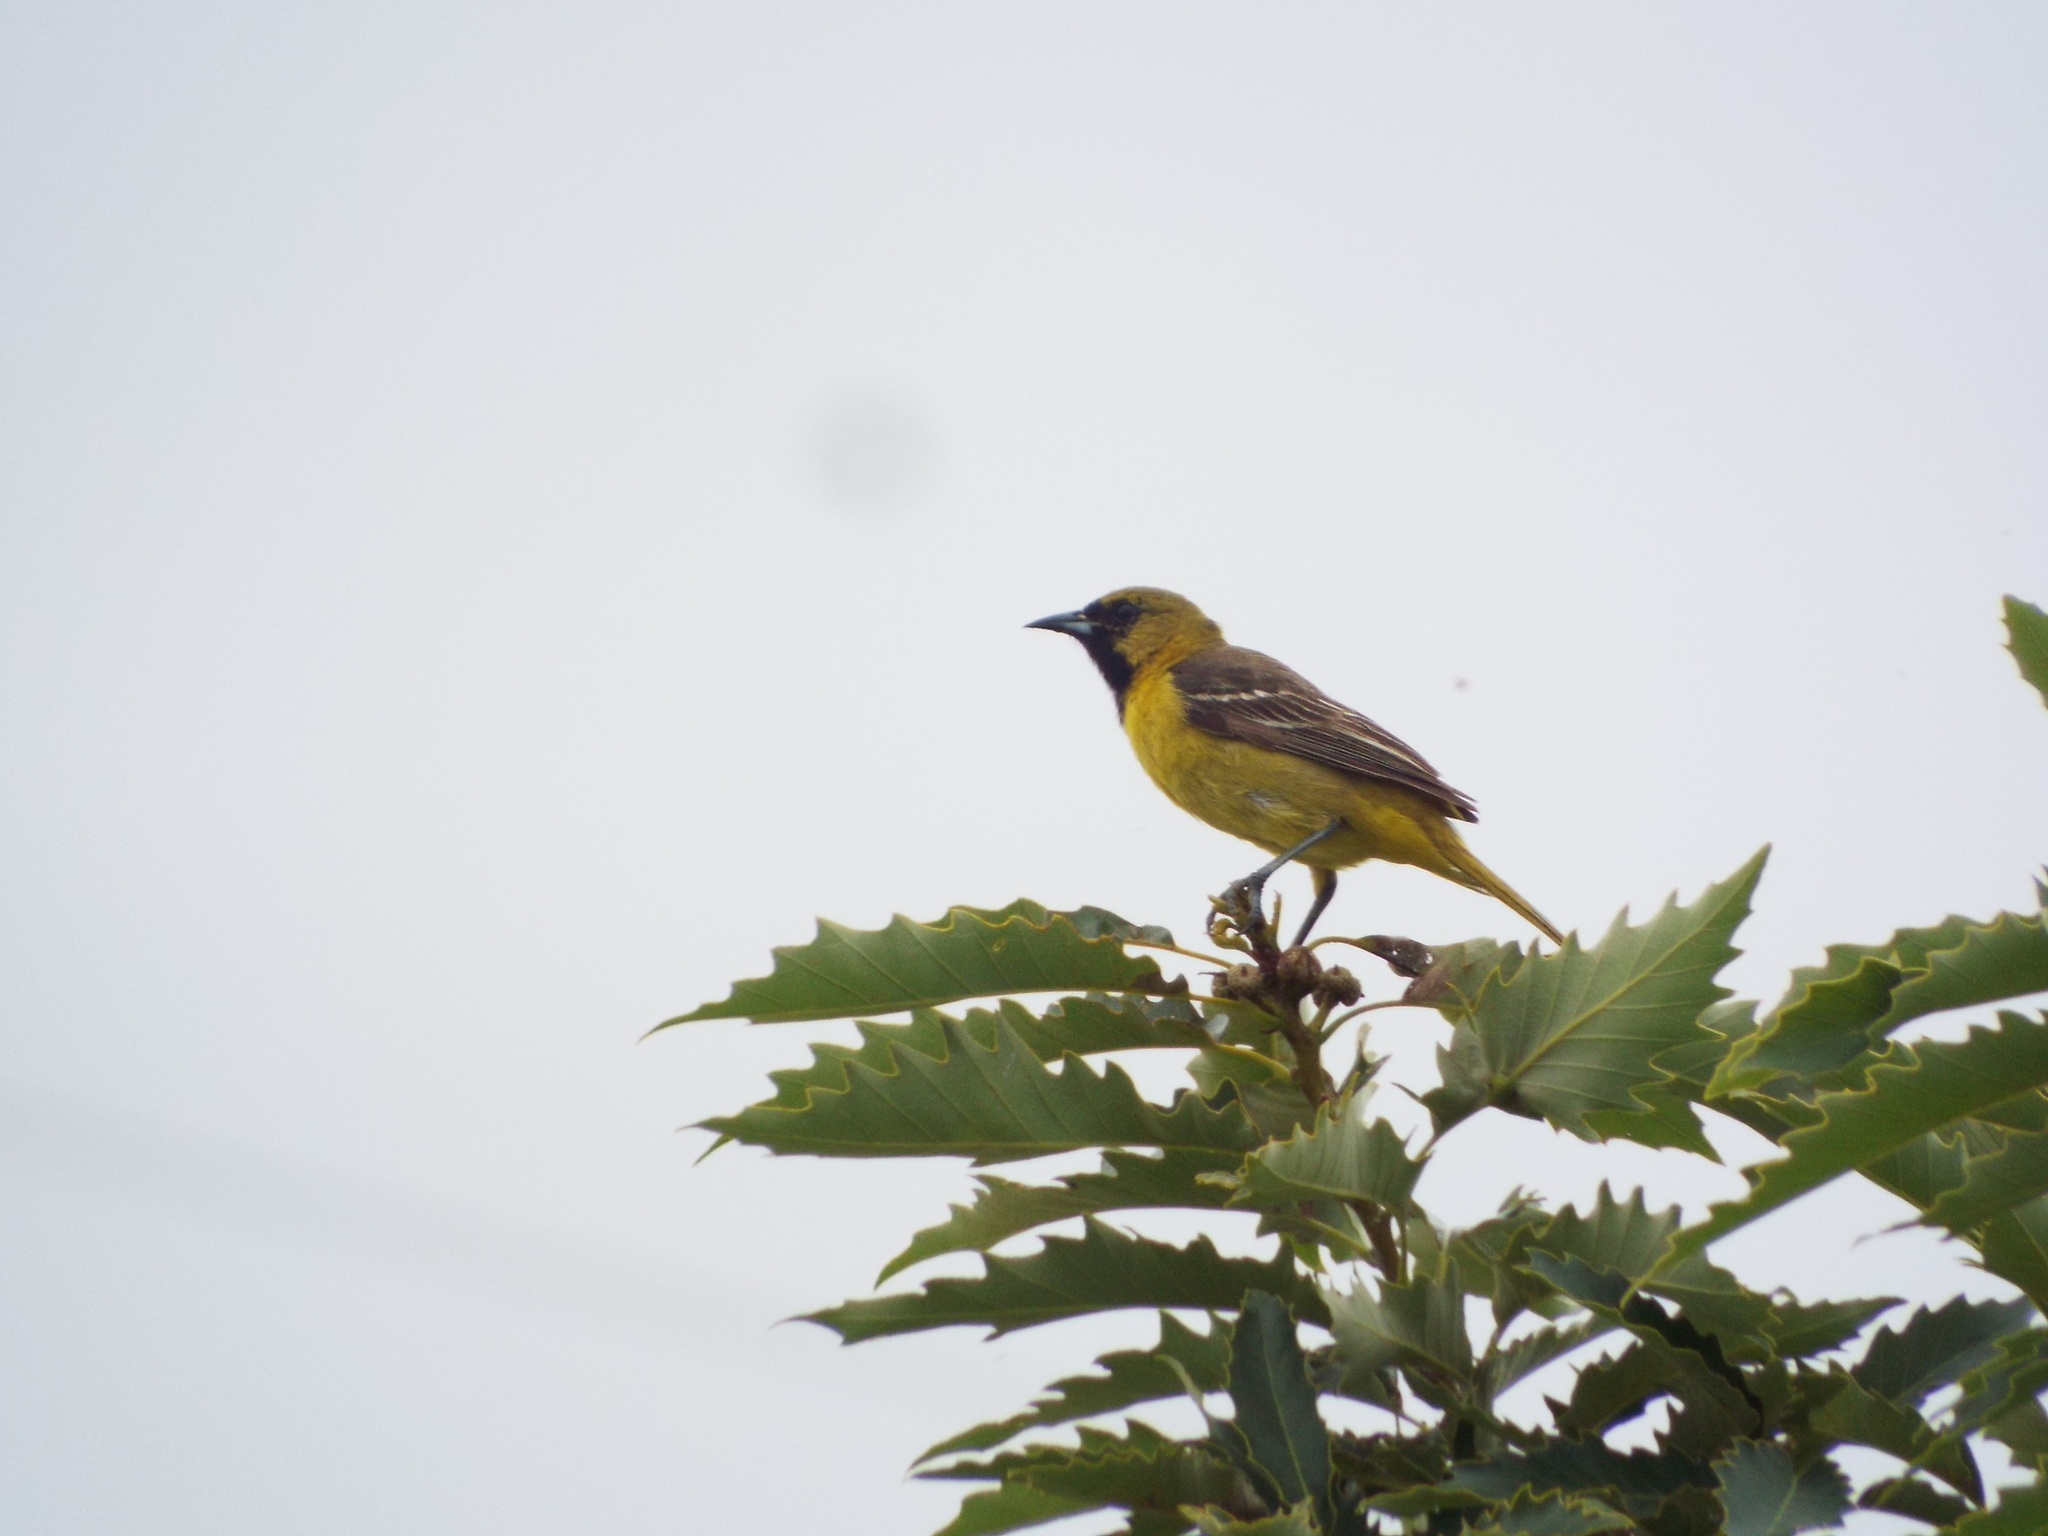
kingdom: Animalia
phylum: Chordata
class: Aves
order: Passeriformes
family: Icteridae
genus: Icterus
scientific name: Icterus spurius
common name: Orchard oriole
